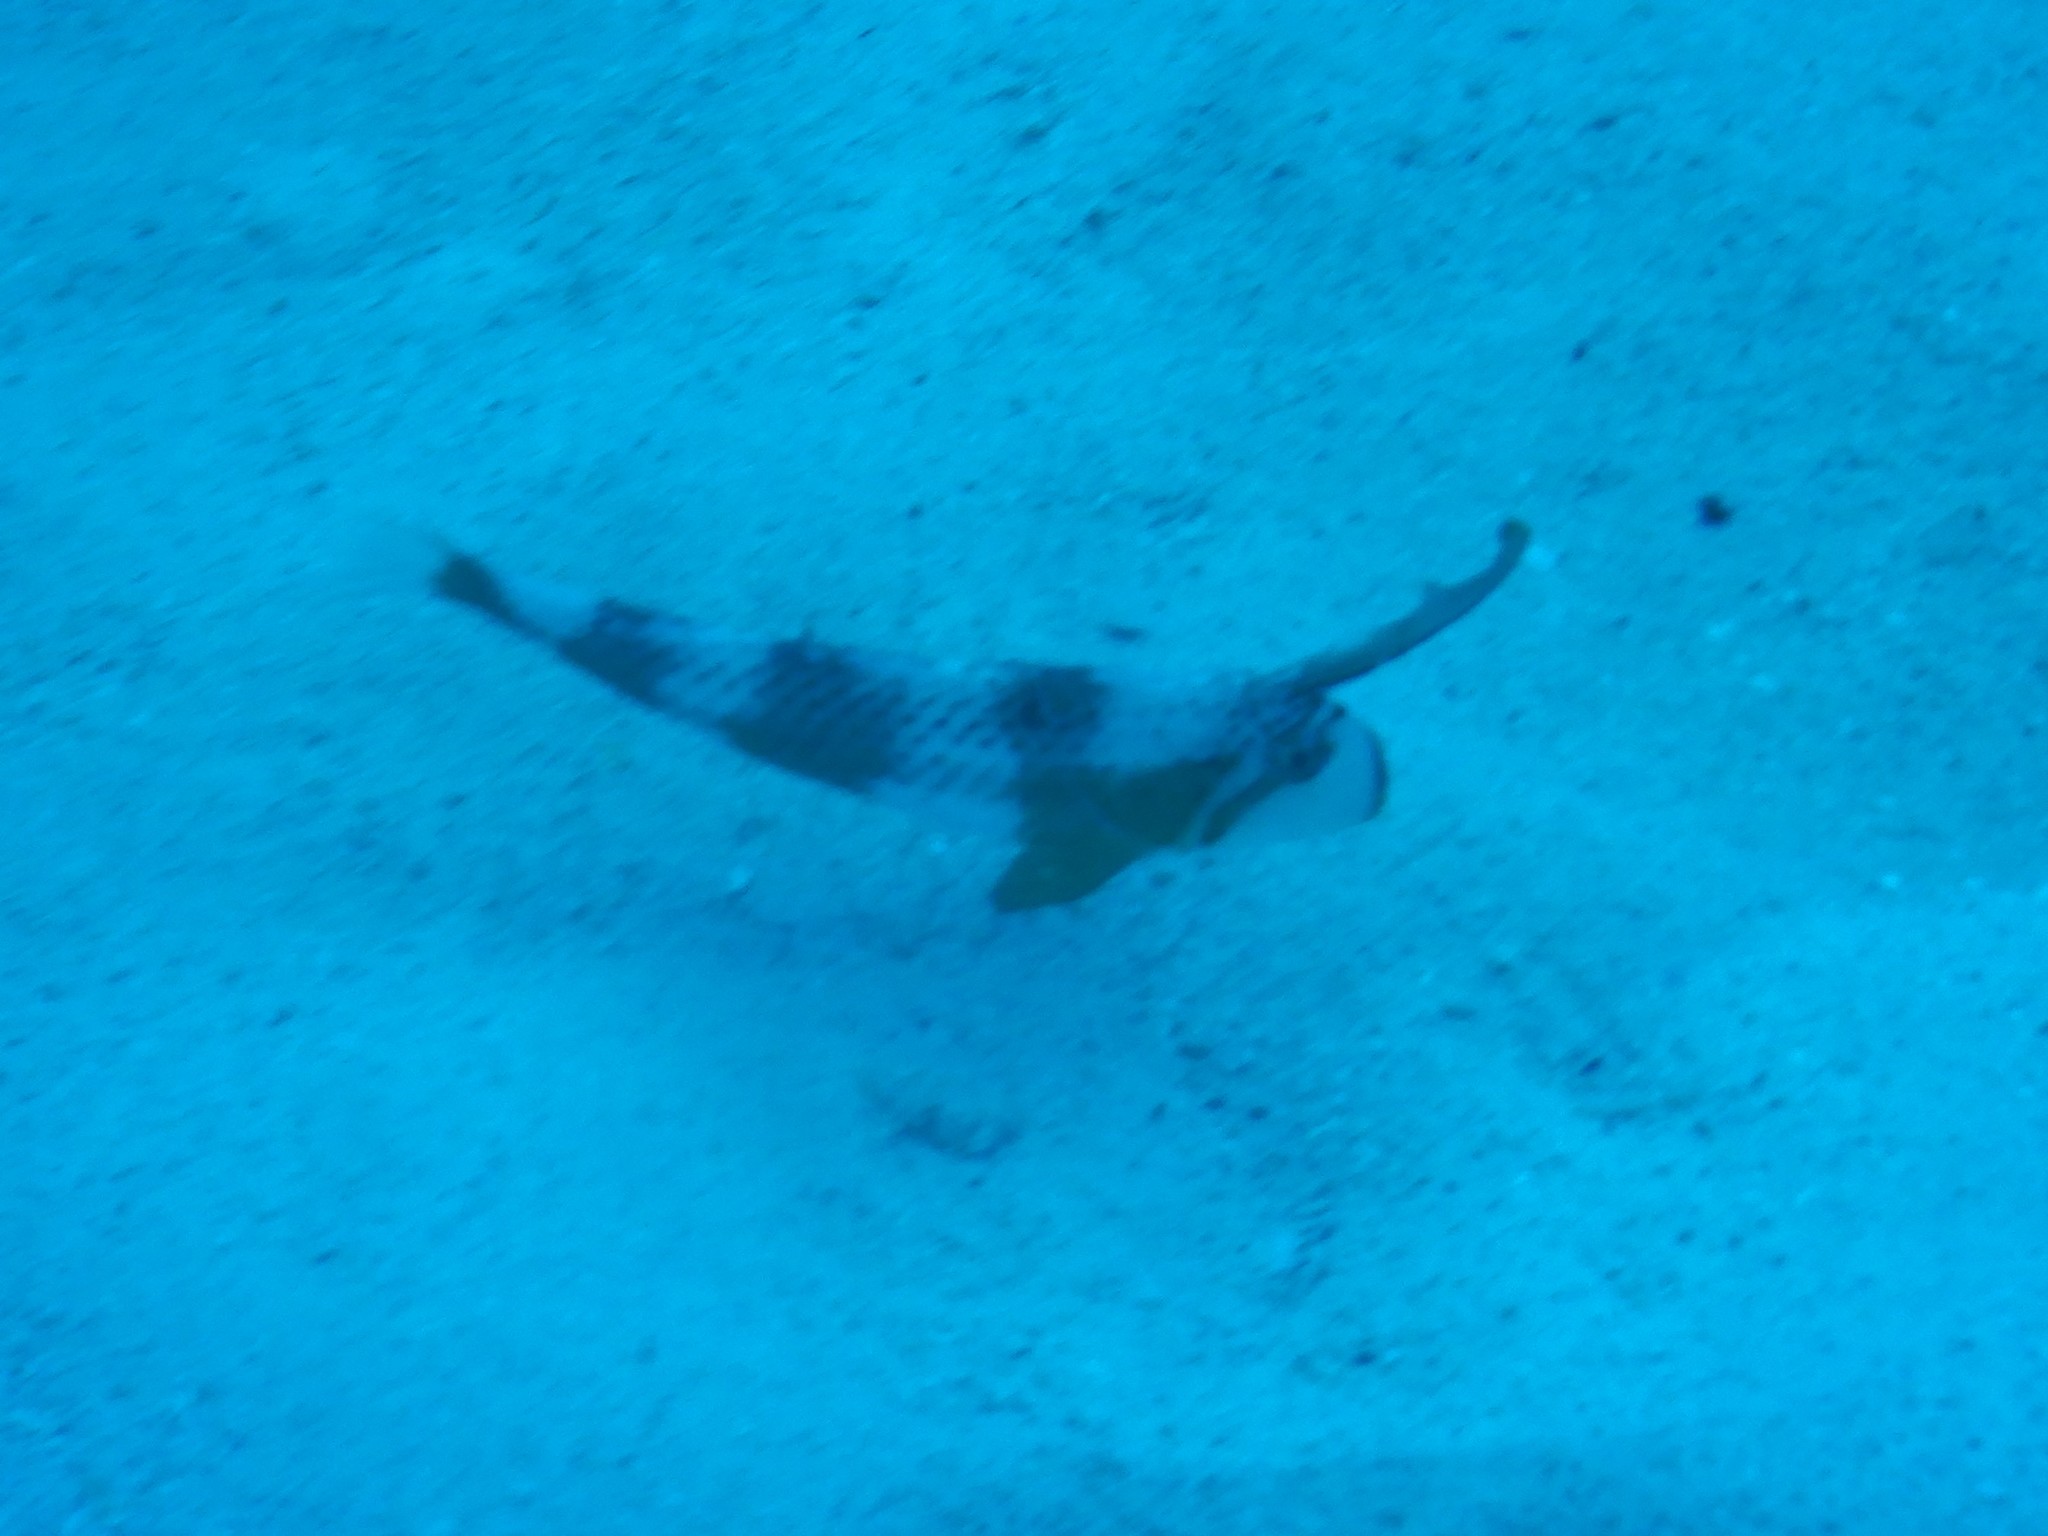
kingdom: Animalia
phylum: Chordata
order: Perciformes
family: Labridae
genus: Iniistius
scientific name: Iniistius pavo
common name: Peacock wrasse
